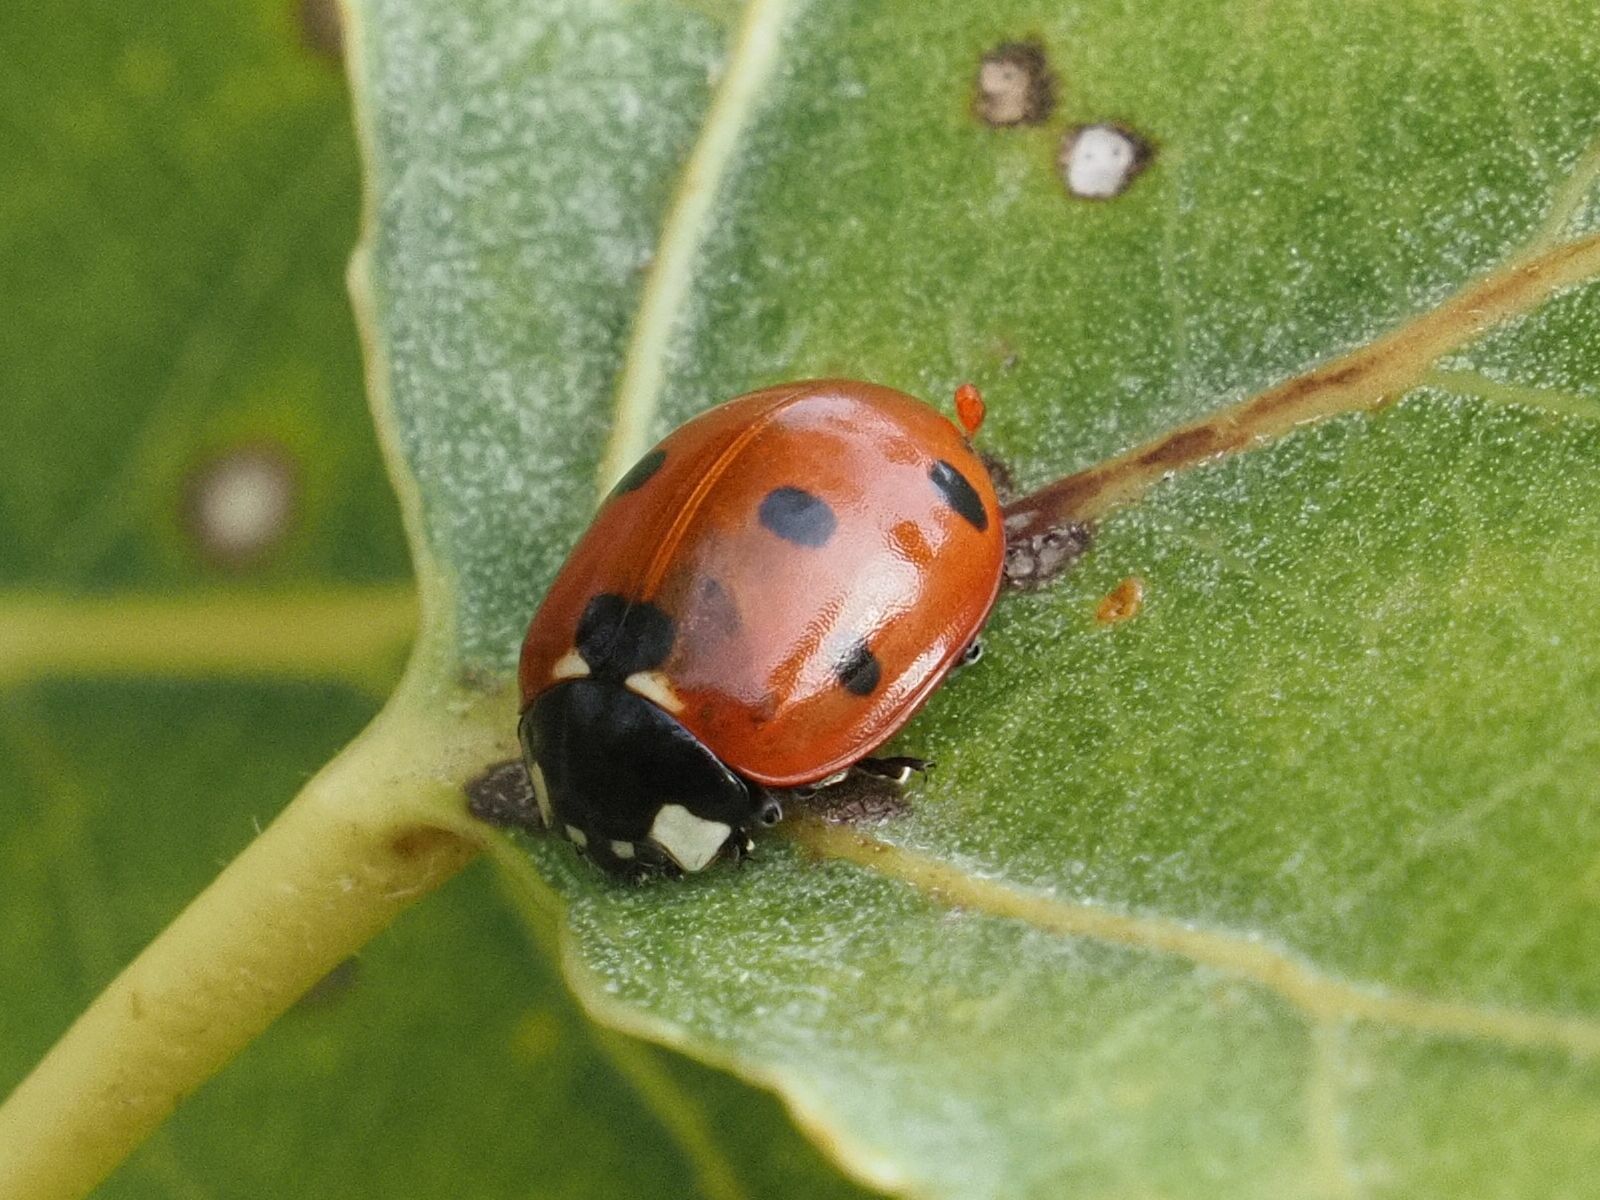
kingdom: Animalia
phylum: Arthropoda
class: Insecta
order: Coleoptera
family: Coccinellidae
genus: Coccinella
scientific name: Coccinella septempunctata
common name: Sevenspotted lady beetle
